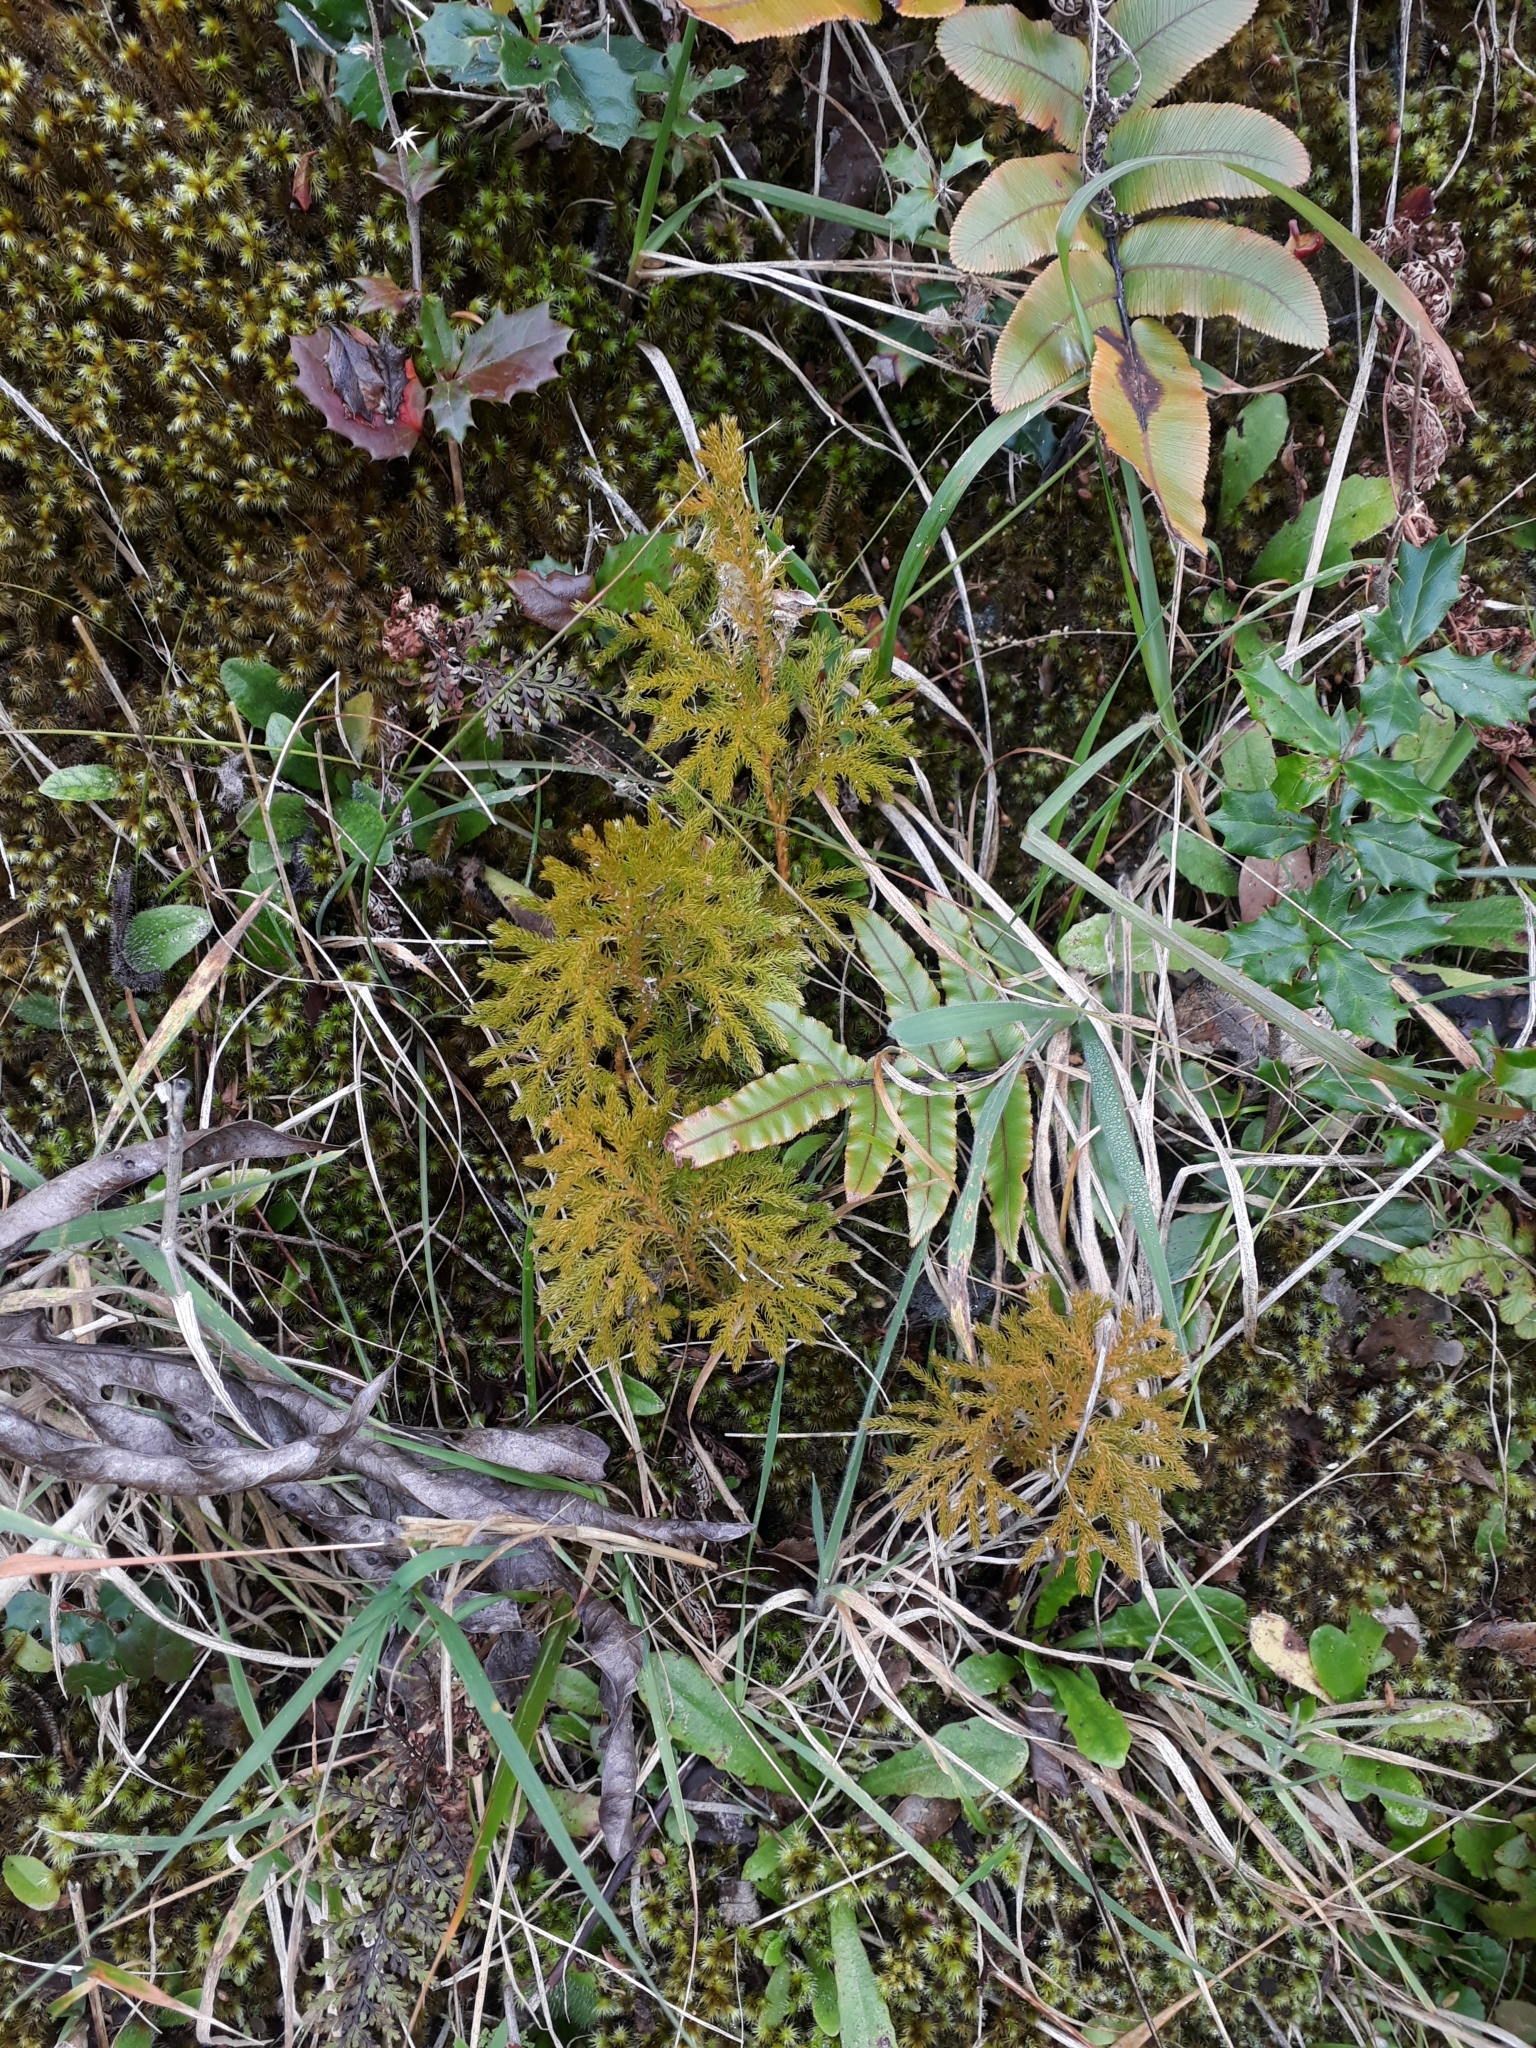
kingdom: Plantae
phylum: Tracheophyta
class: Lycopodiopsida
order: Lycopodiales
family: Lycopodiaceae
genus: Austrolycopodium
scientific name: Austrolycopodium fastigiatum
